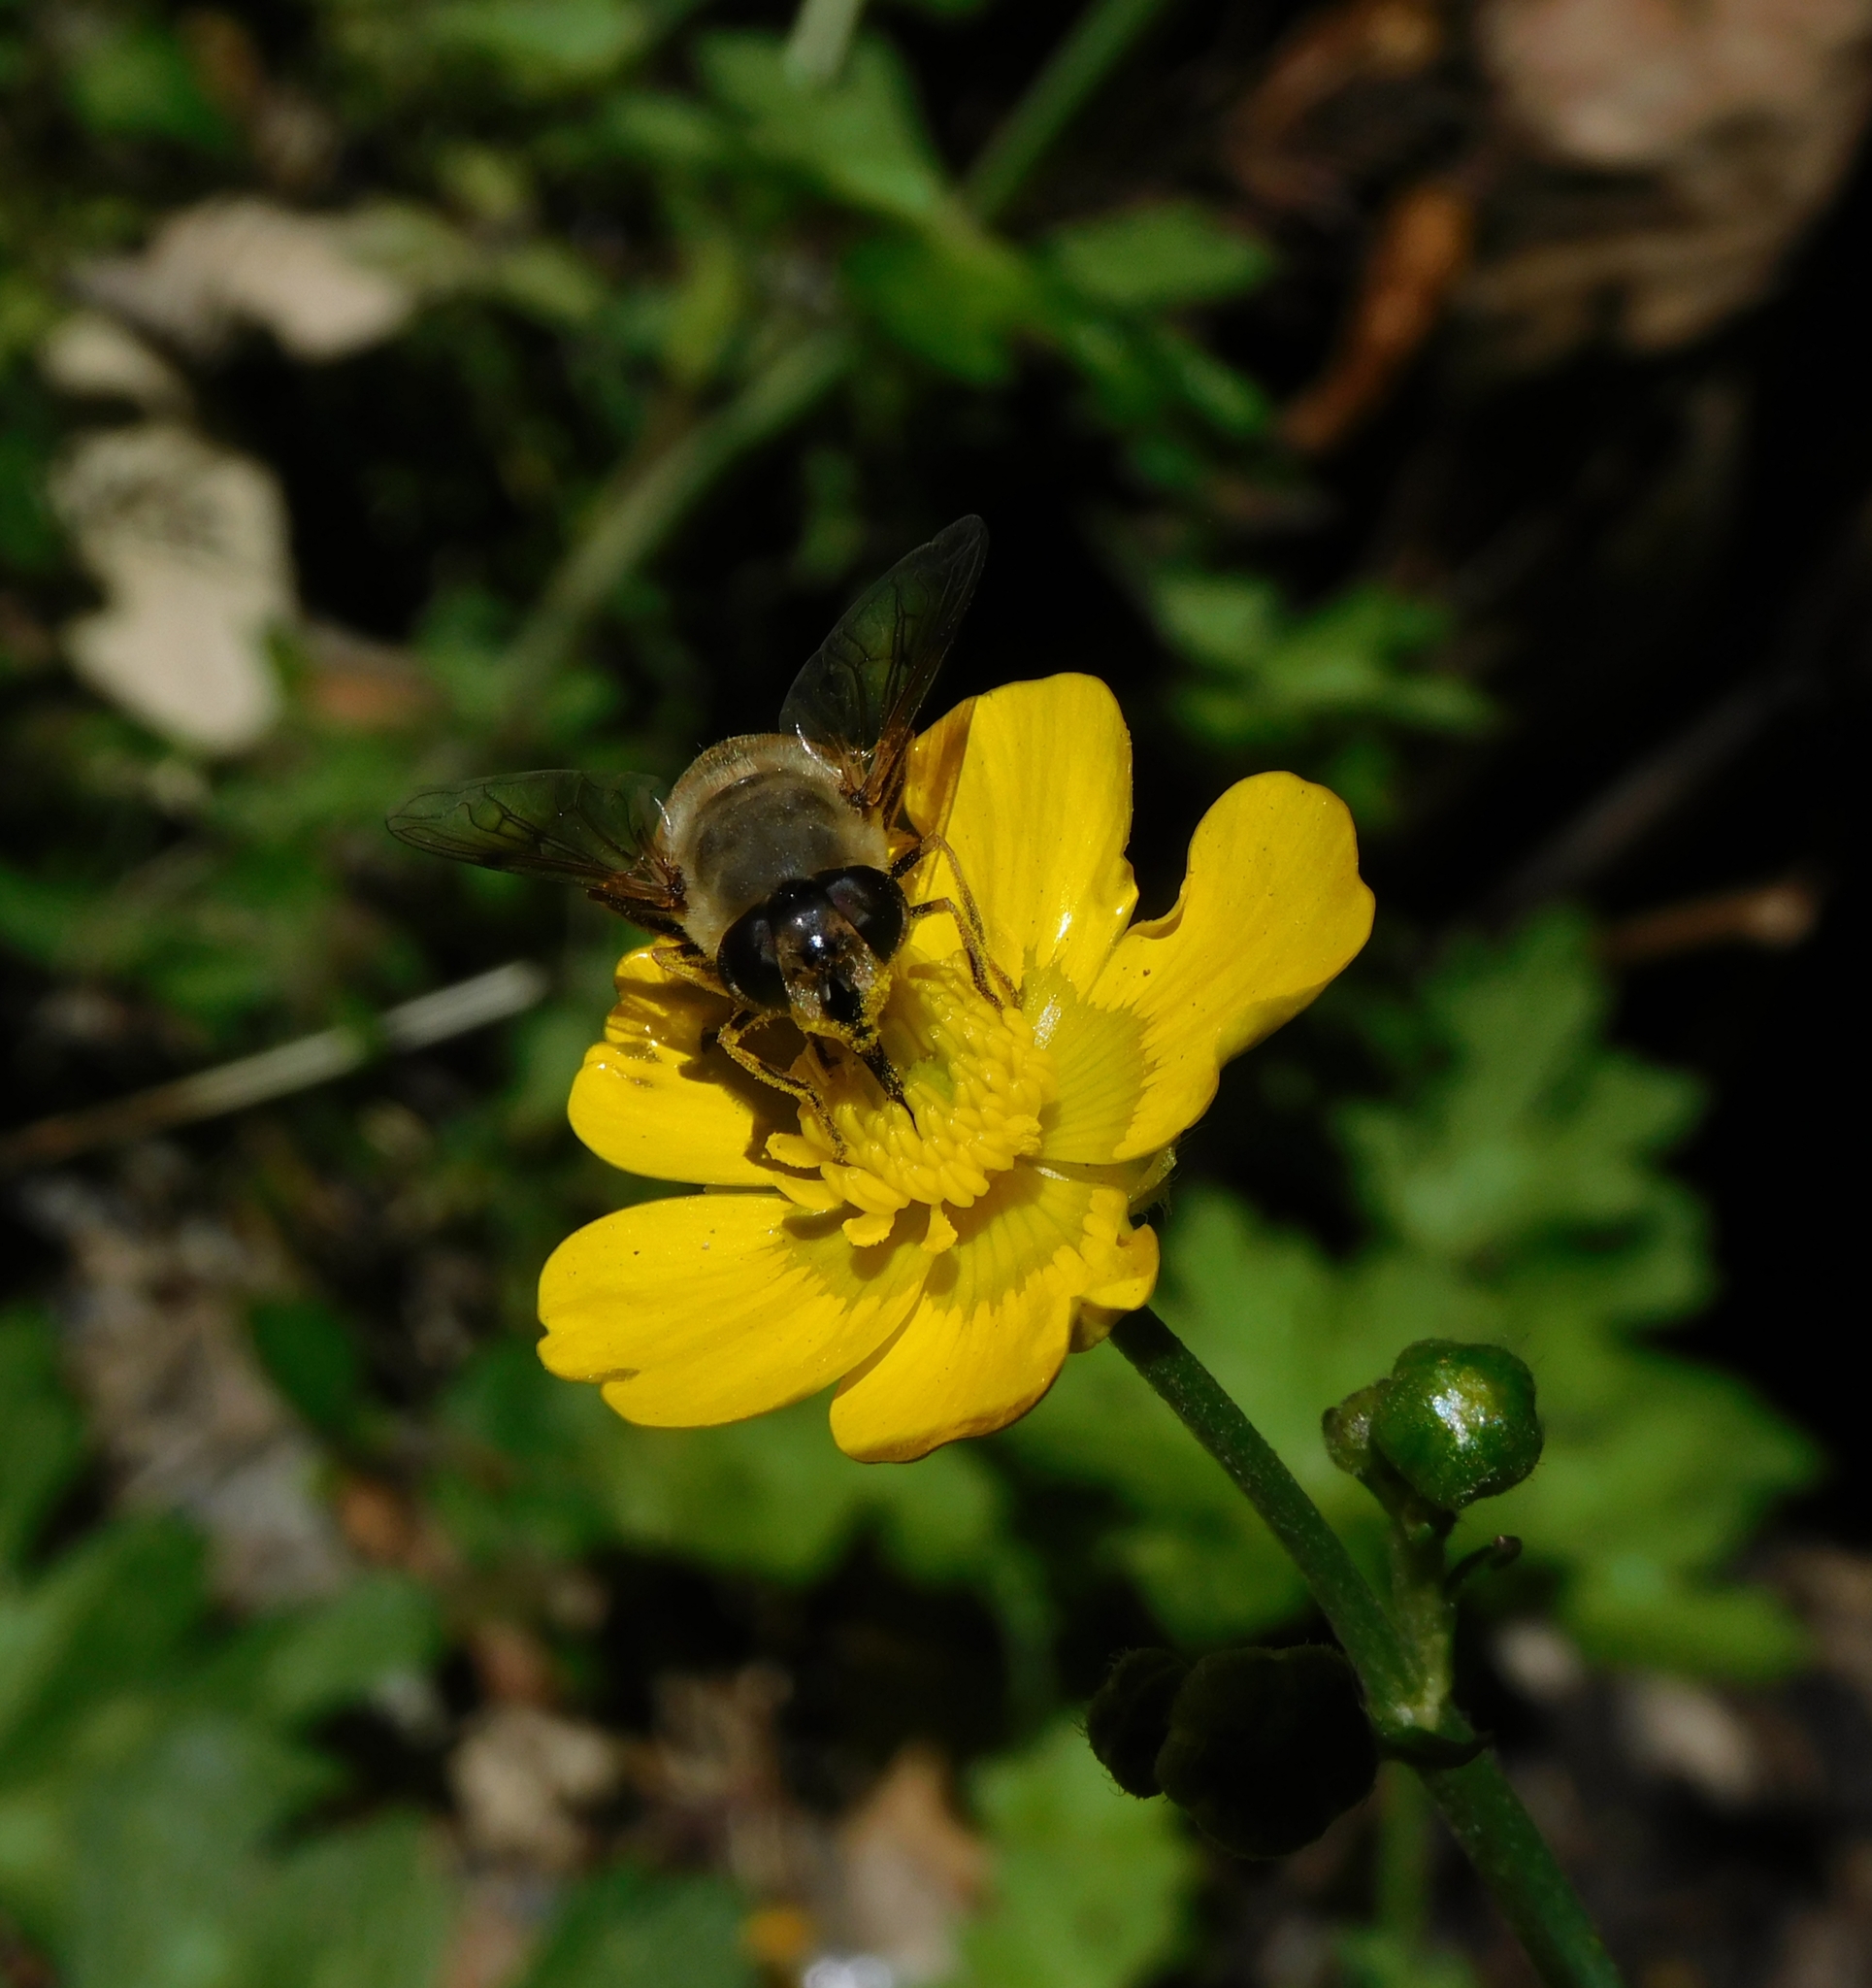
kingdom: Animalia
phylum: Arthropoda
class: Insecta
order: Diptera
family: Syrphidae
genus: Eristalis
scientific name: Eristalis tenax
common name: Drone fly
